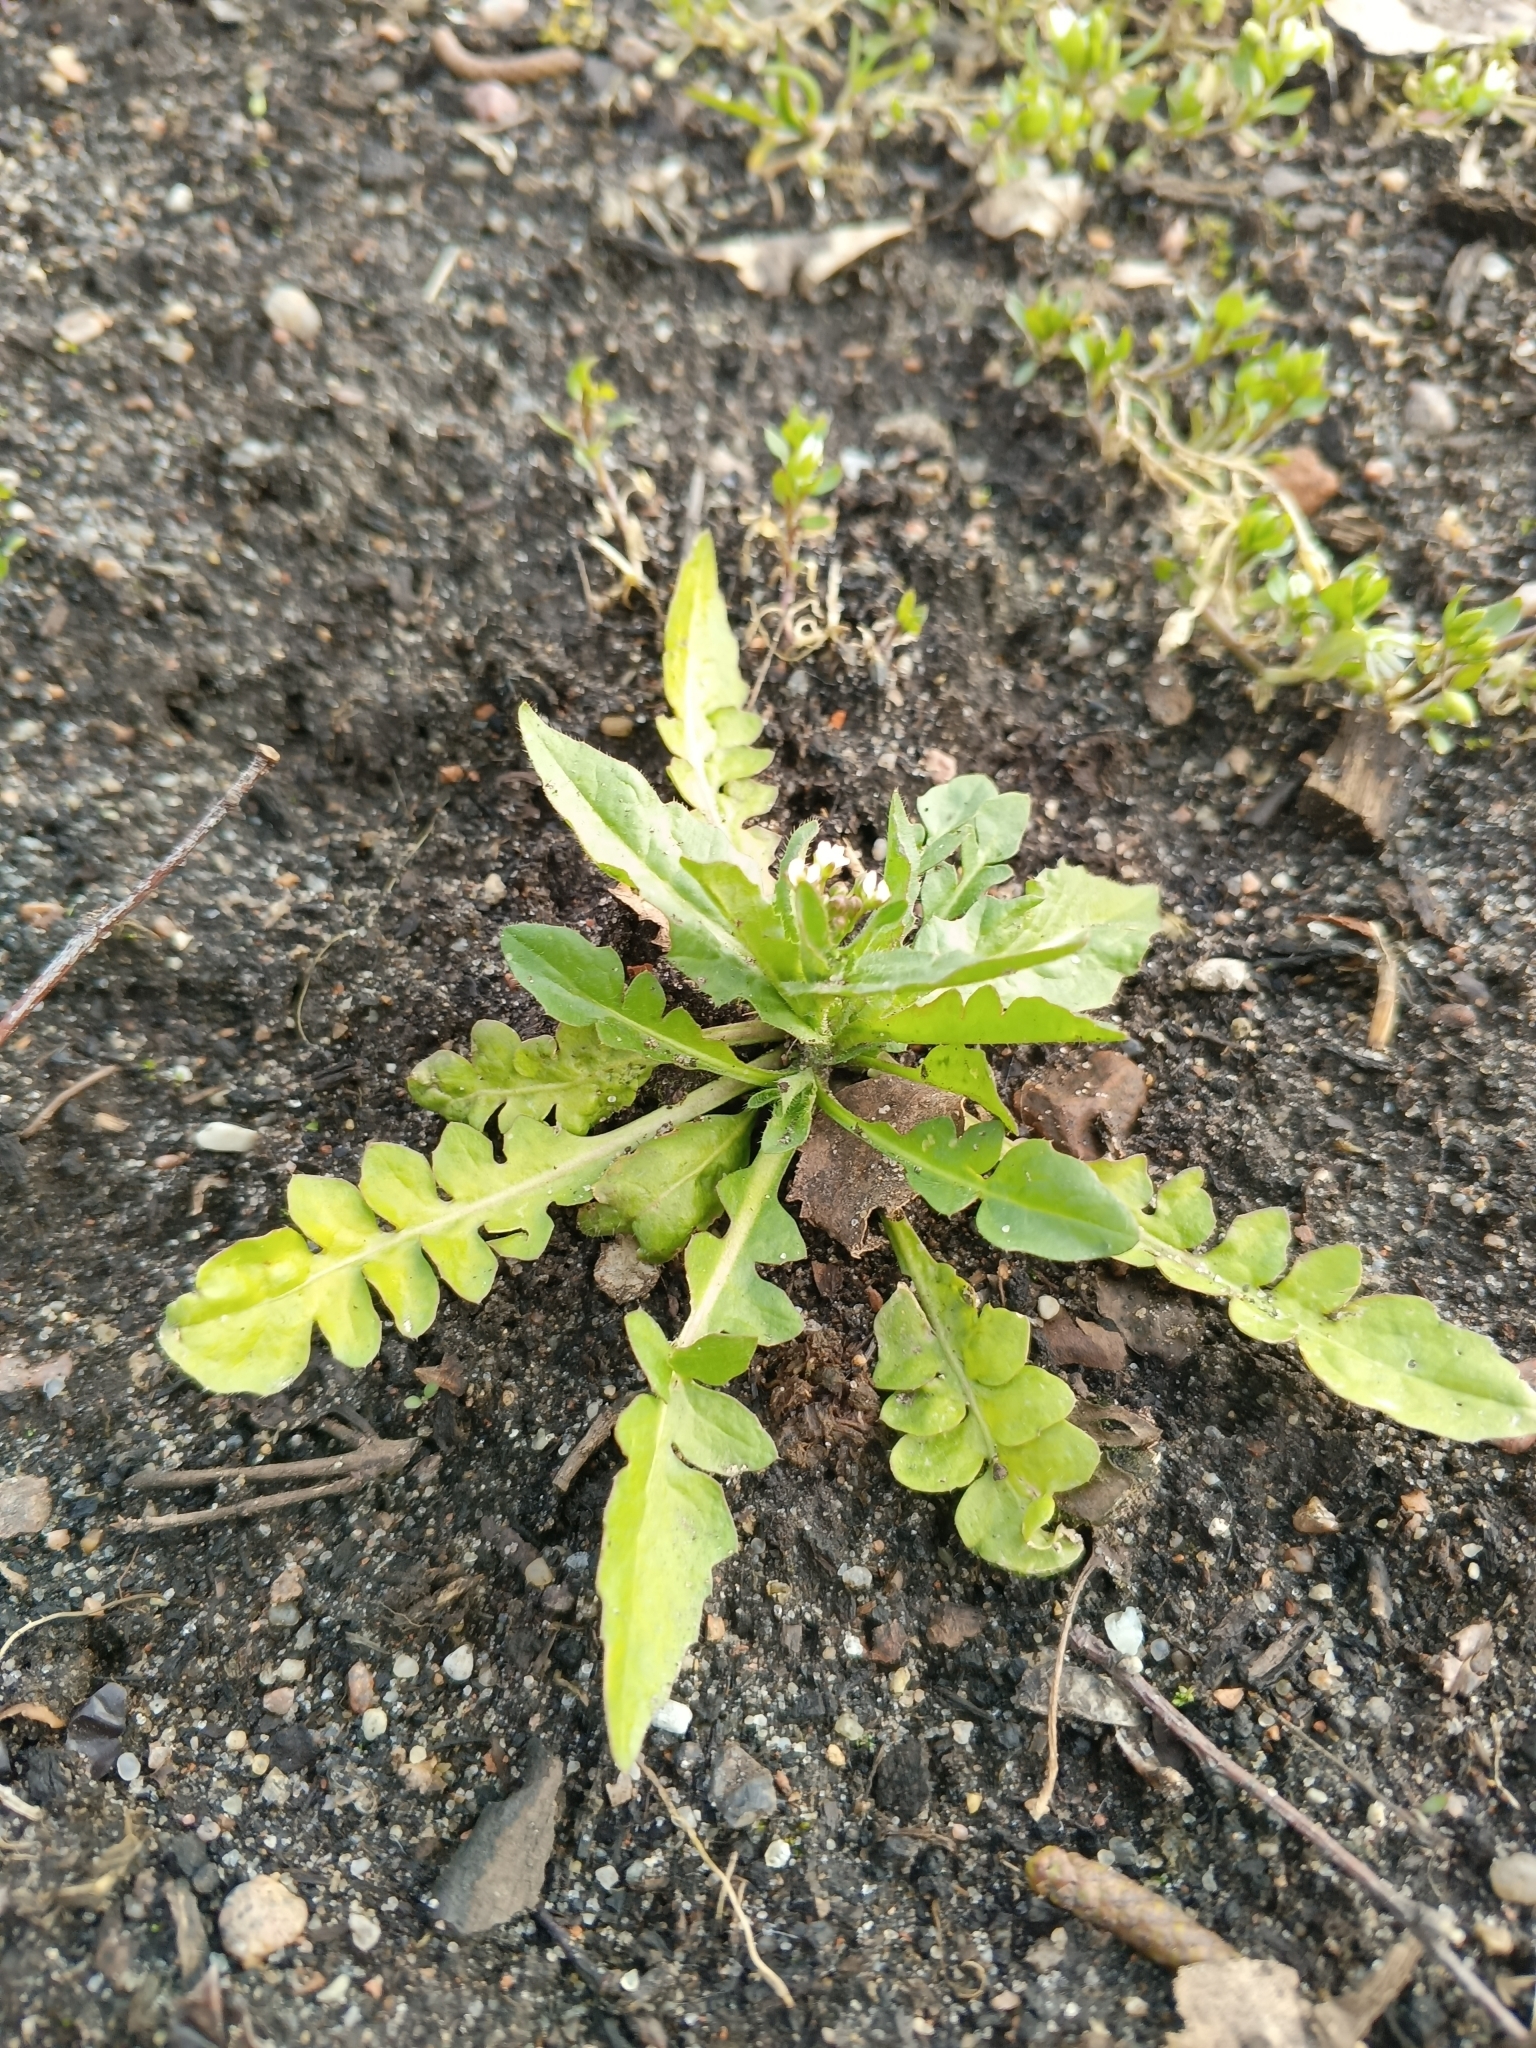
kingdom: Plantae
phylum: Tracheophyta
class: Magnoliopsida
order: Brassicales
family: Brassicaceae
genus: Capsella
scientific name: Capsella bursa-pastoris
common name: Shepherd's purse
